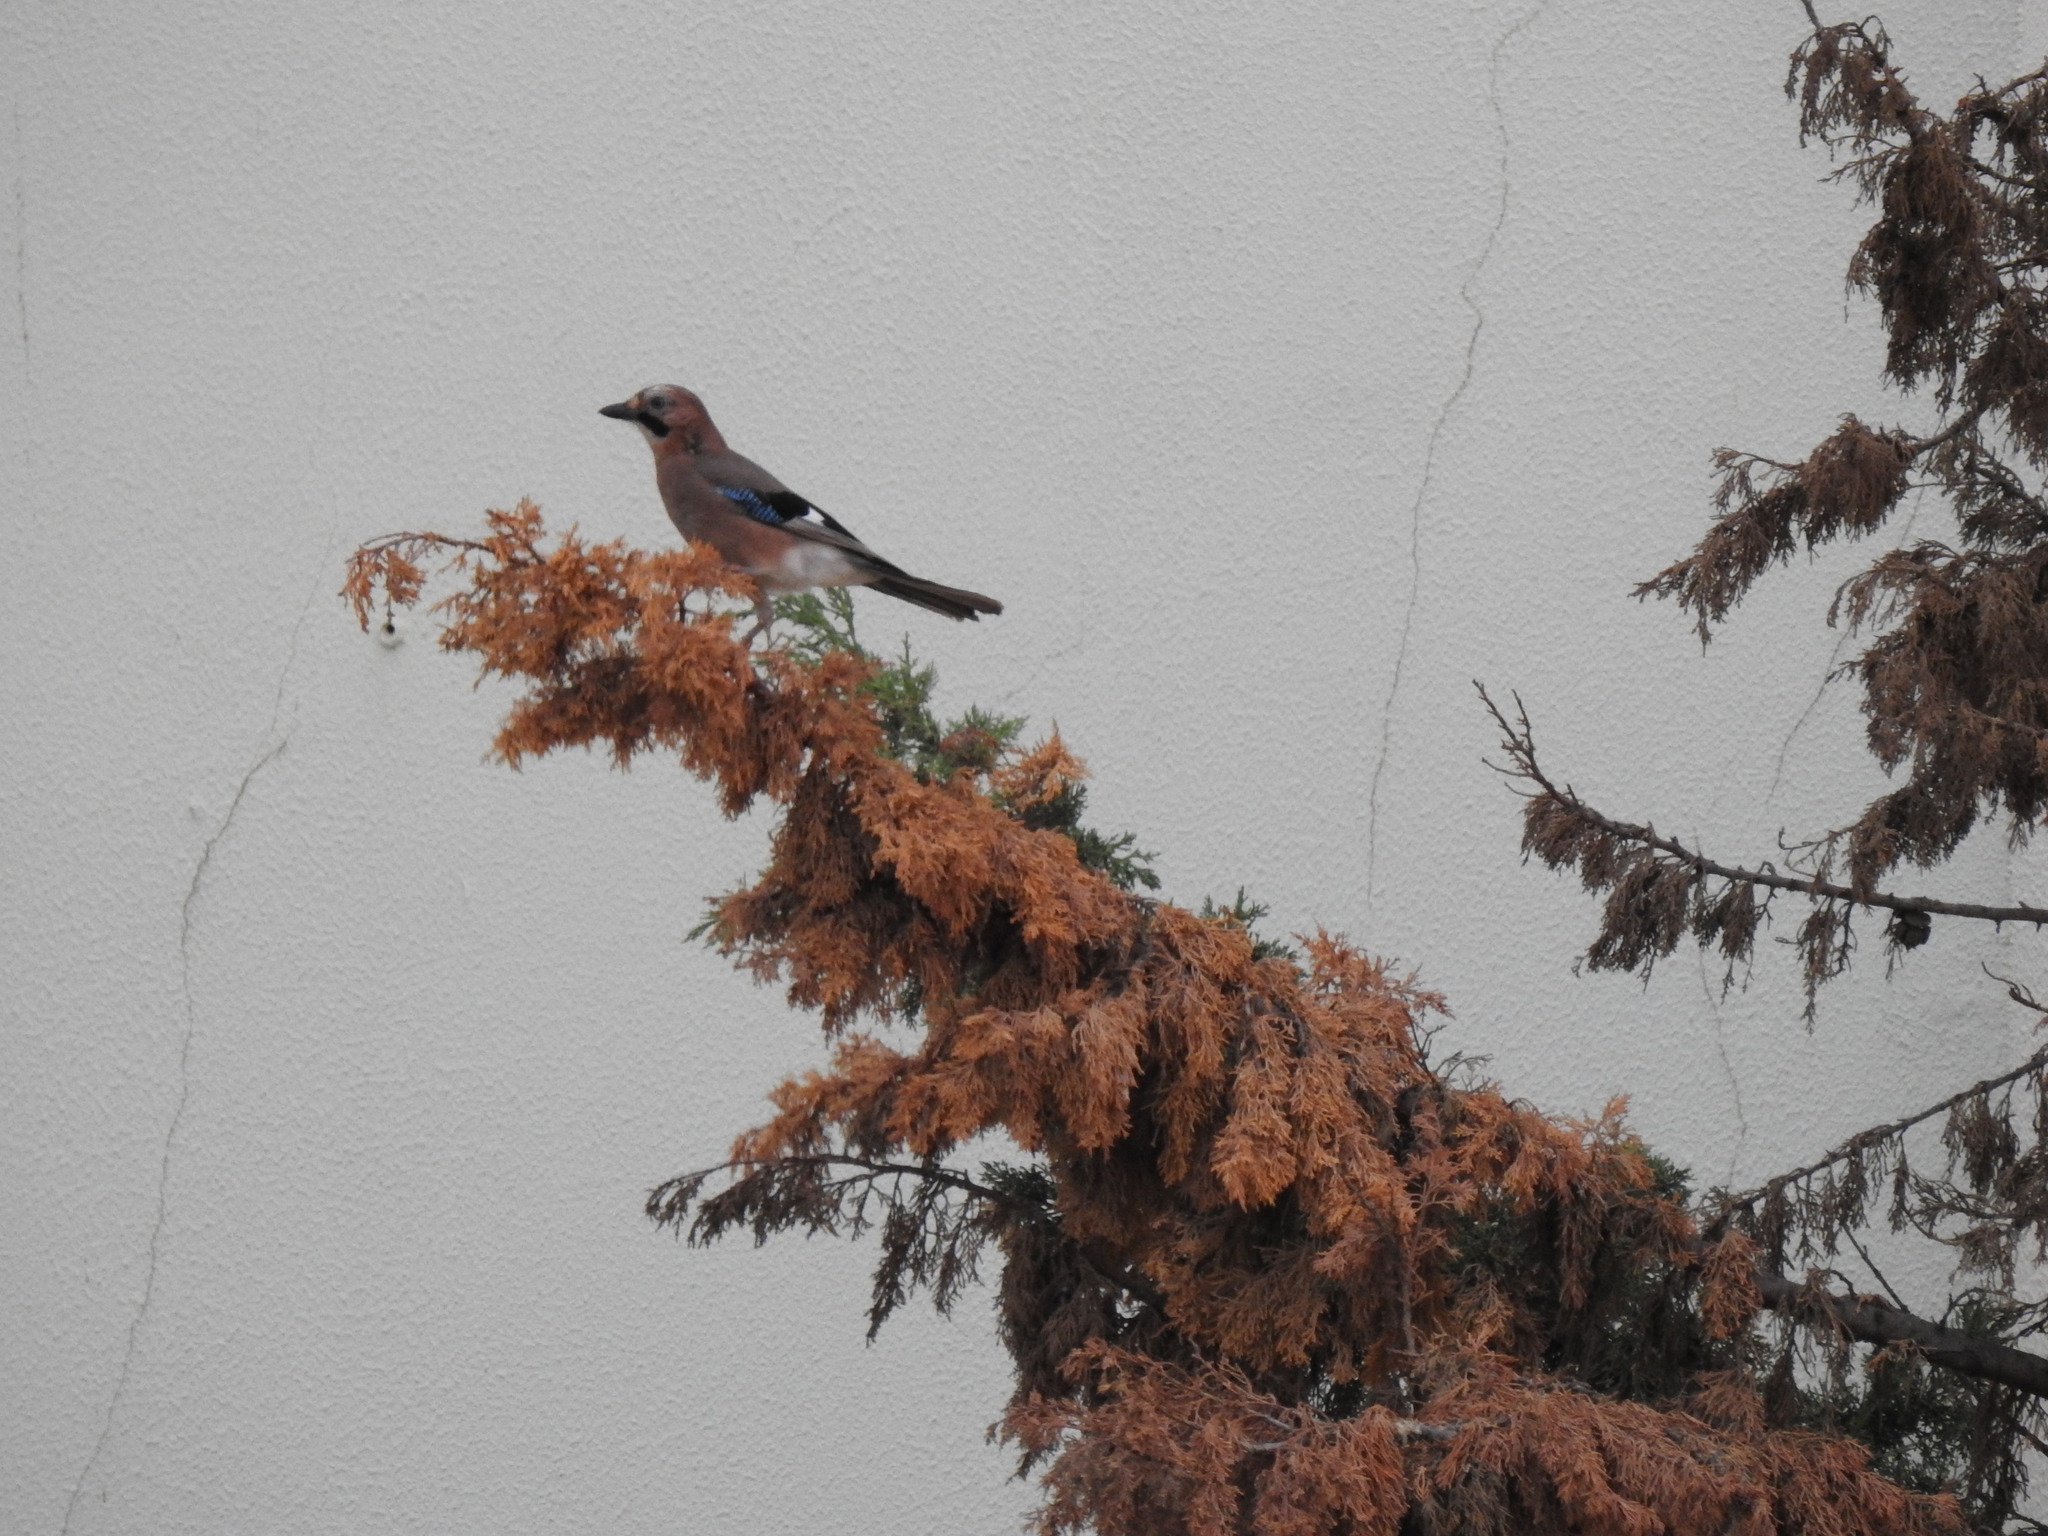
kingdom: Animalia
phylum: Chordata
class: Aves
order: Passeriformes
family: Corvidae
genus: Garrulus
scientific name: Garrulus glandarius
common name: Eurasian jay
